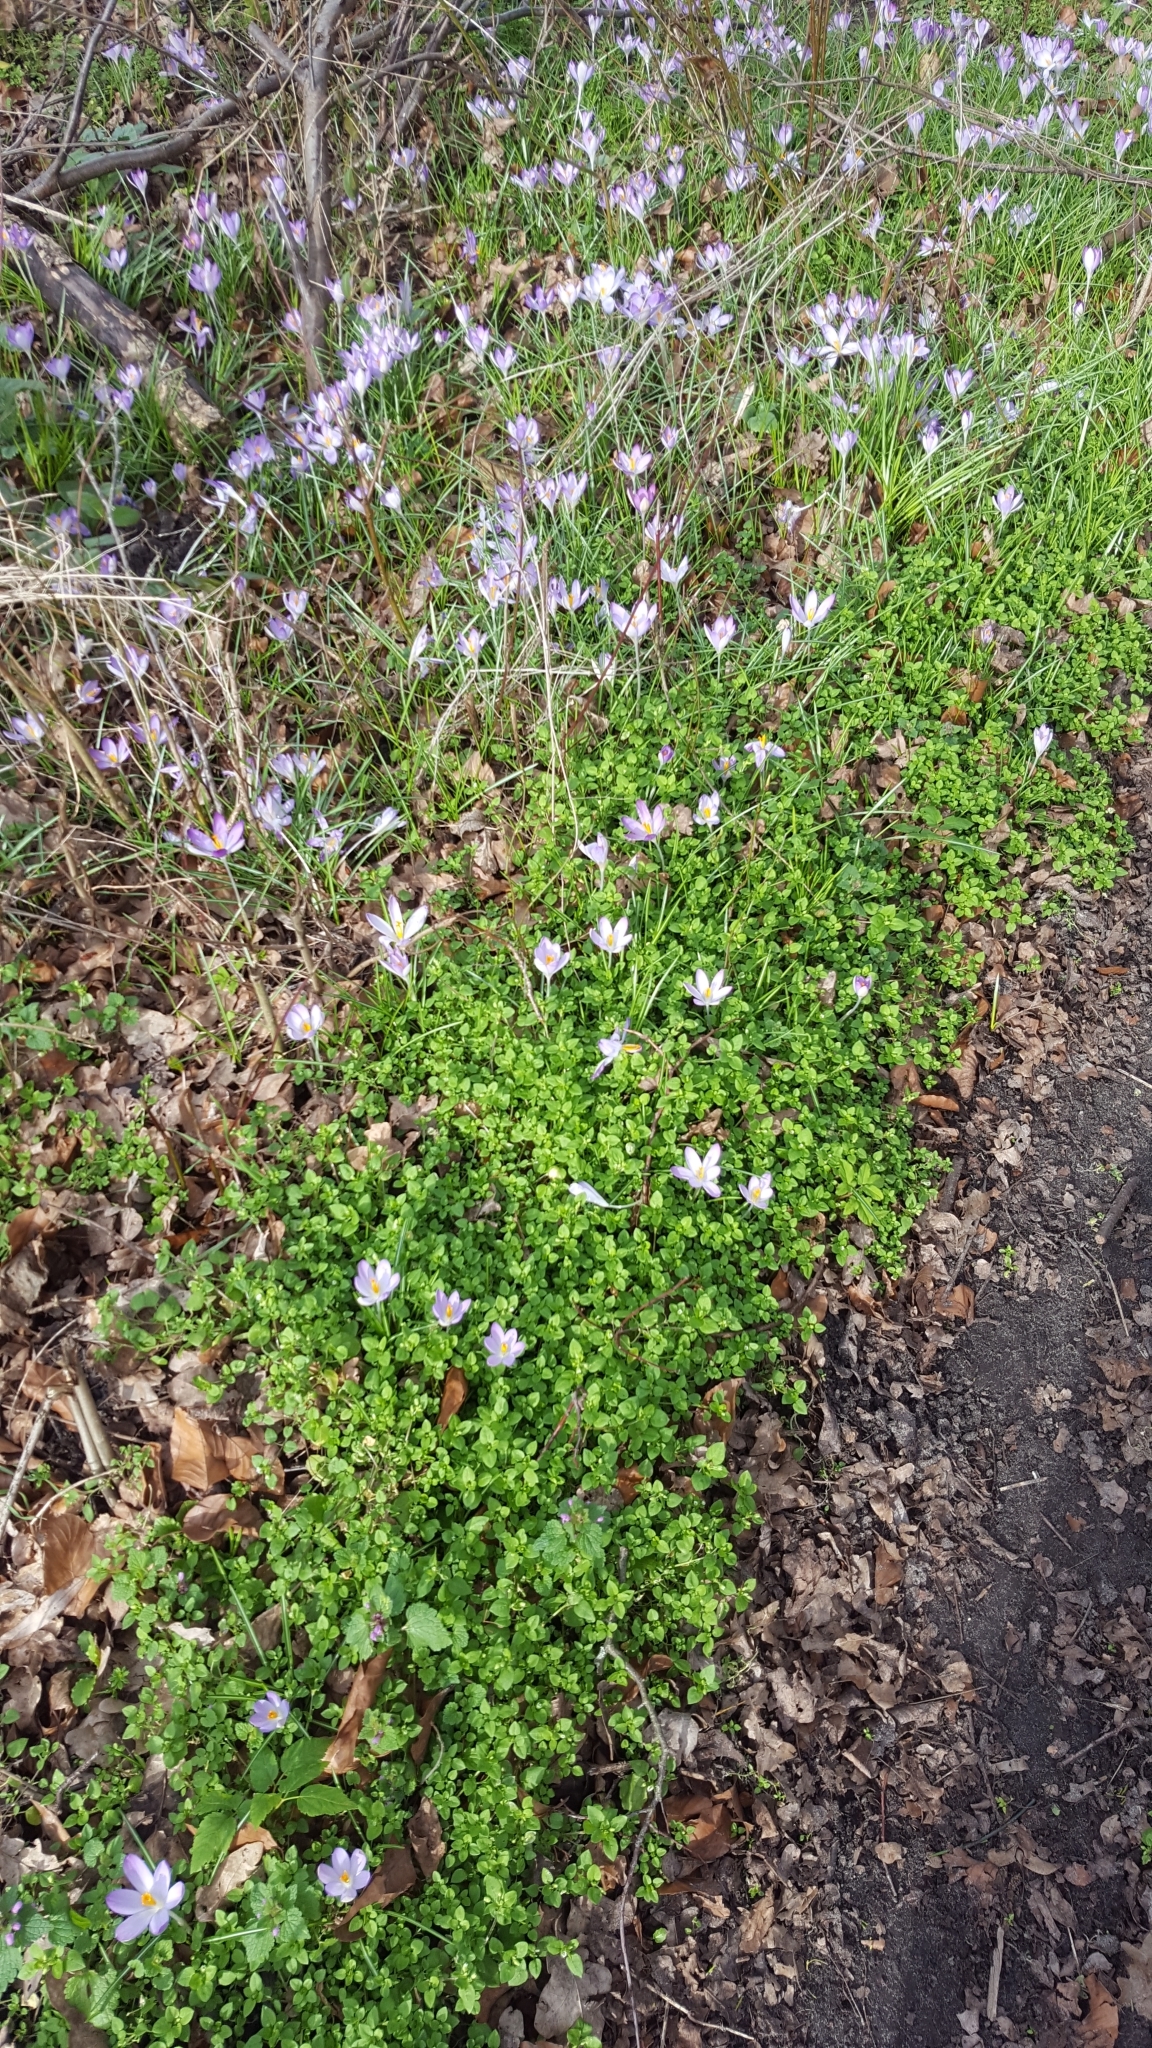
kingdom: Plantae
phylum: Tracheophyta
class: Liliopsida
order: Asparagales
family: Iridaceae
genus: Crocus
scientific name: Crocus tommasinianus
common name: Early crocus
